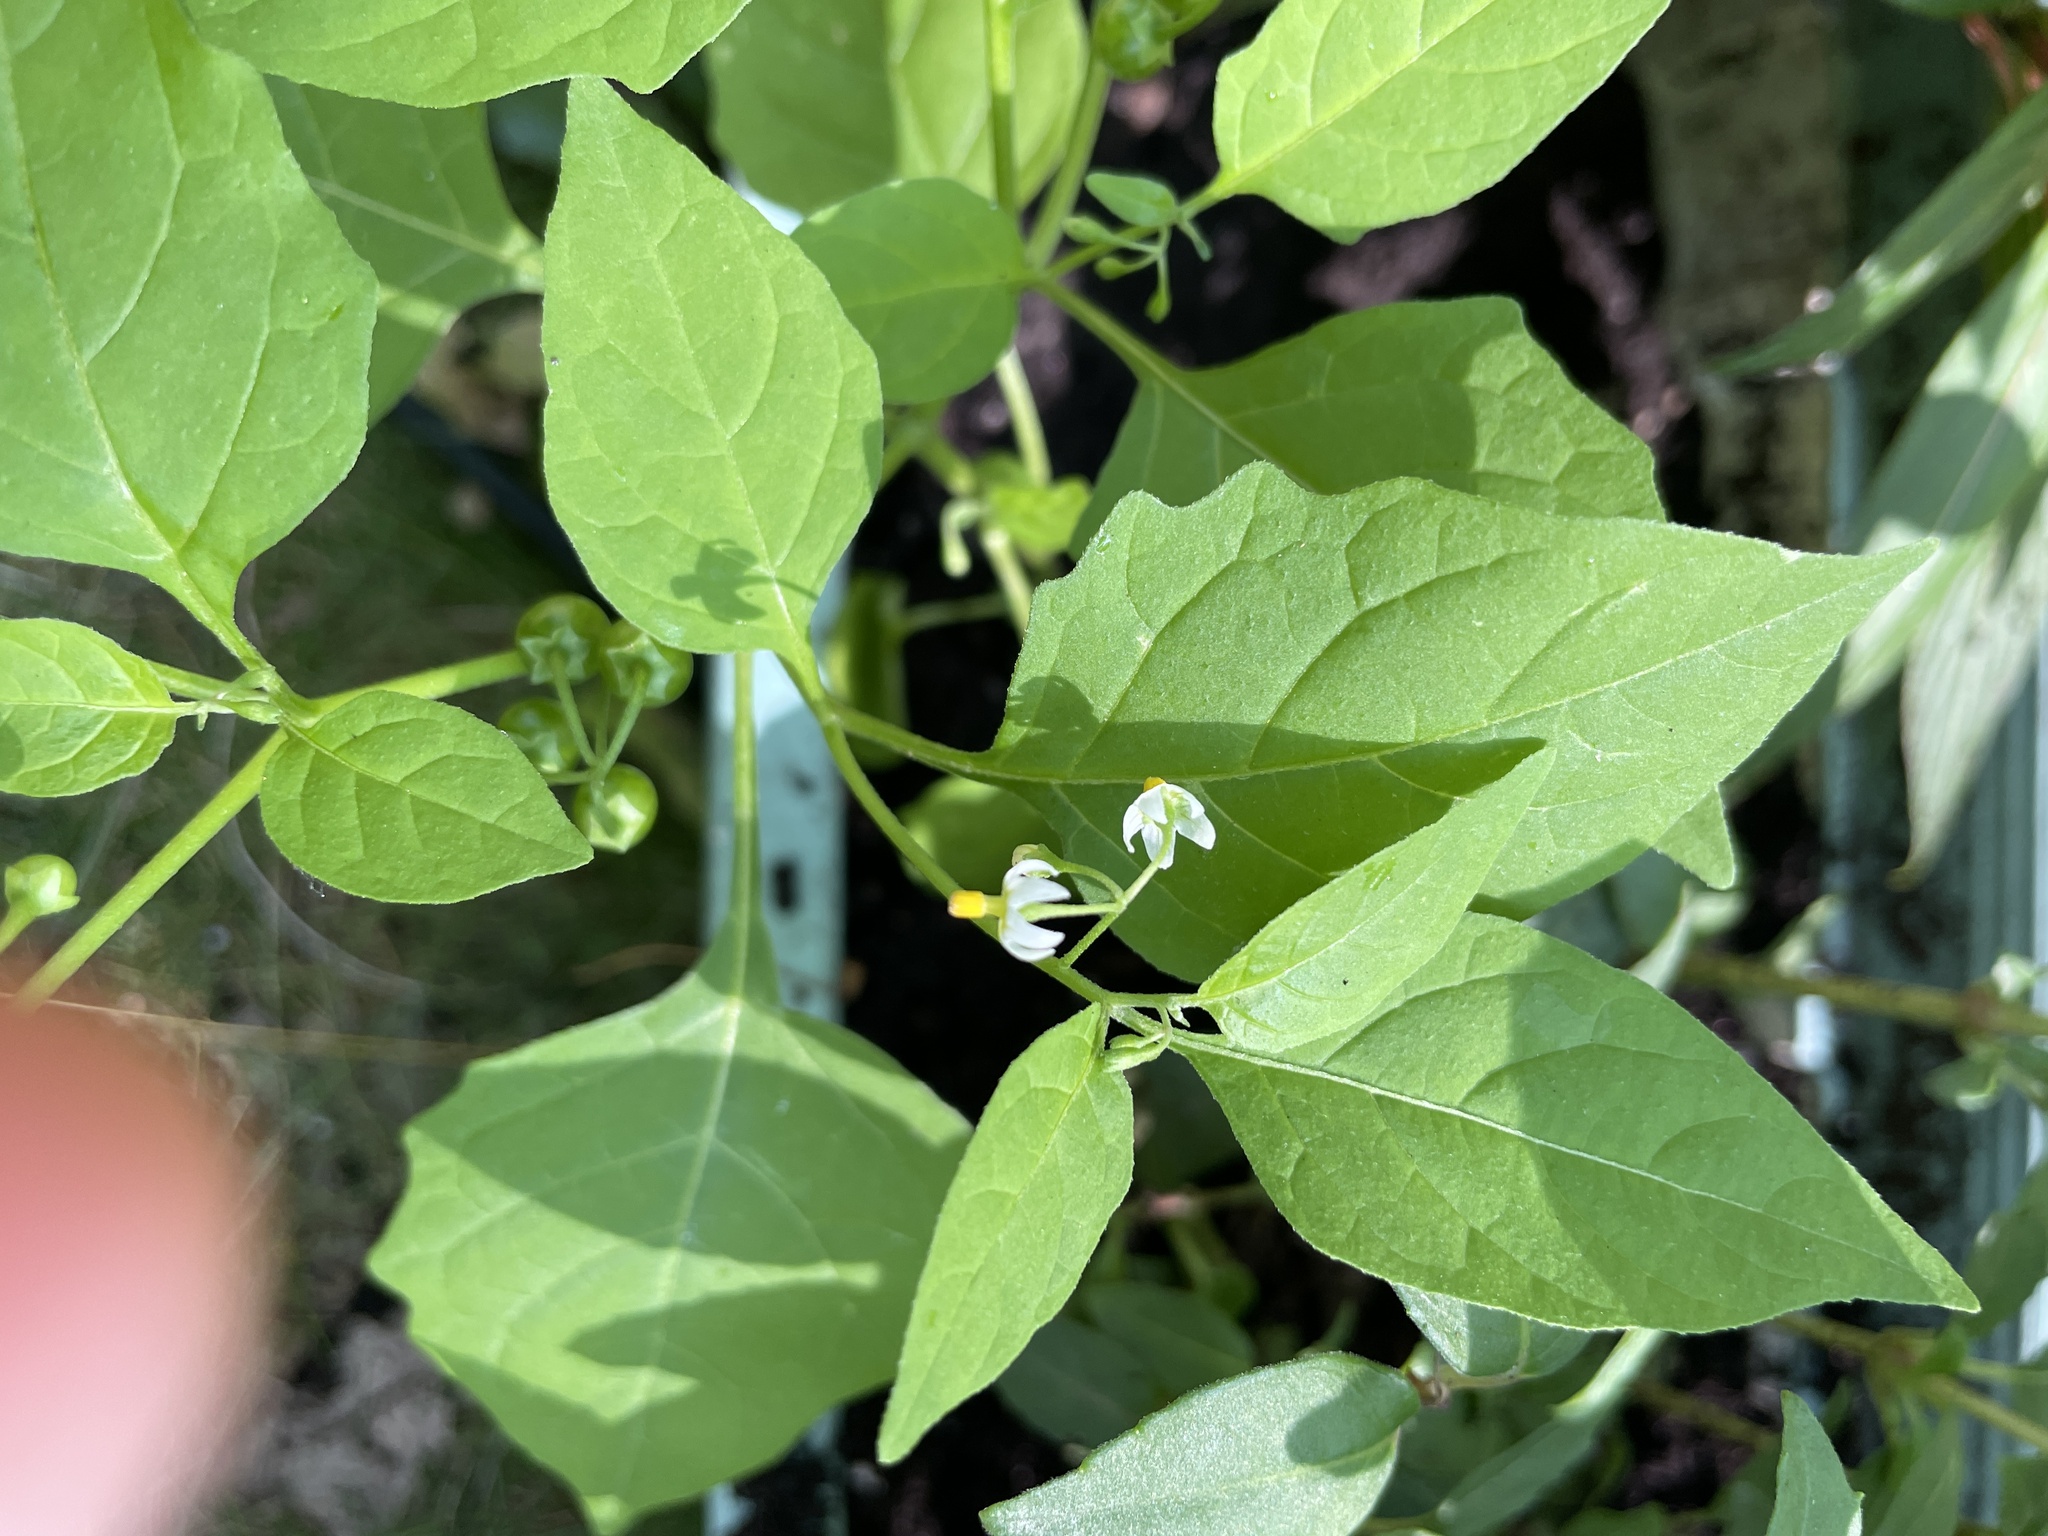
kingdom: Plantae
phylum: Tracheophyta
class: Magnoliopsida
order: Solanales
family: Solanaceae
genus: Solanum
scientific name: Solanum emulans
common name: Eastern black nightshade
